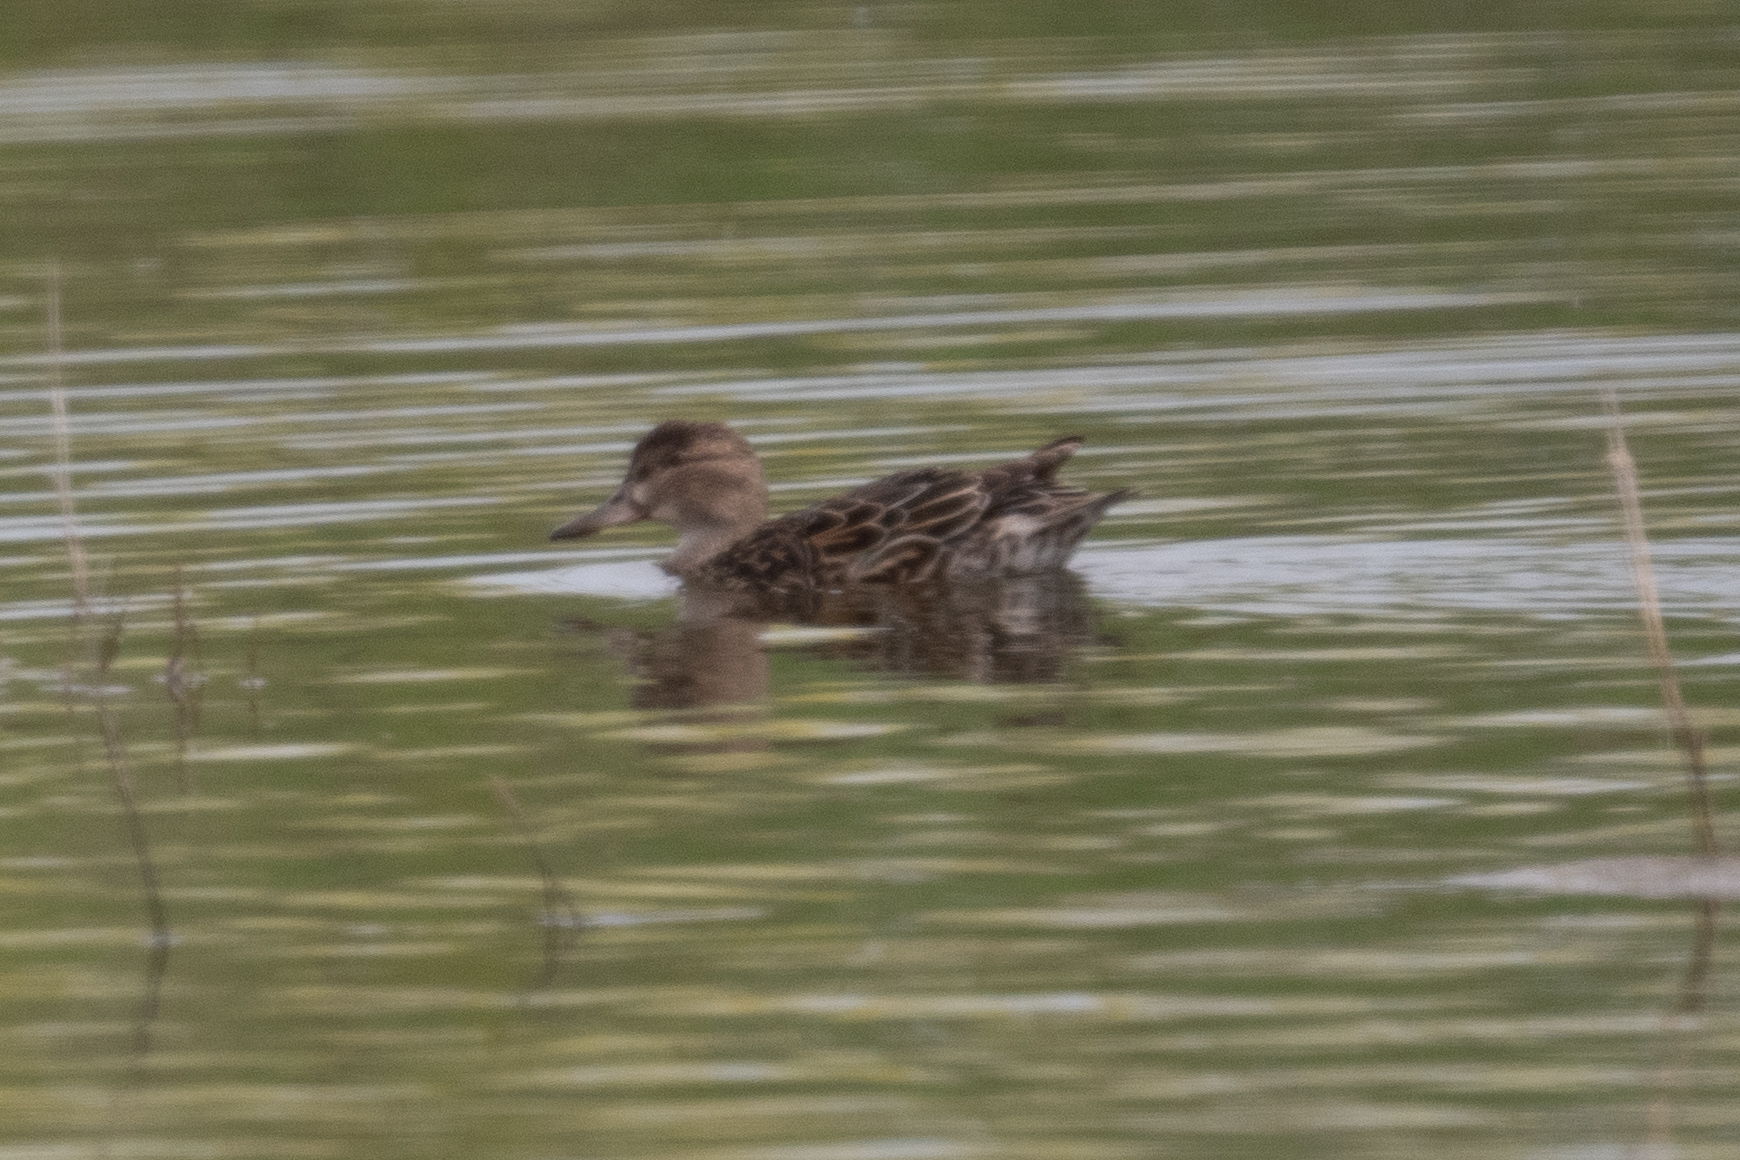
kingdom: Animalia
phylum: Chordata
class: Aves
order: Anseriformes
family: Anatidae
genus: Anas
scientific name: Anas crecca
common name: Eurasian teal
